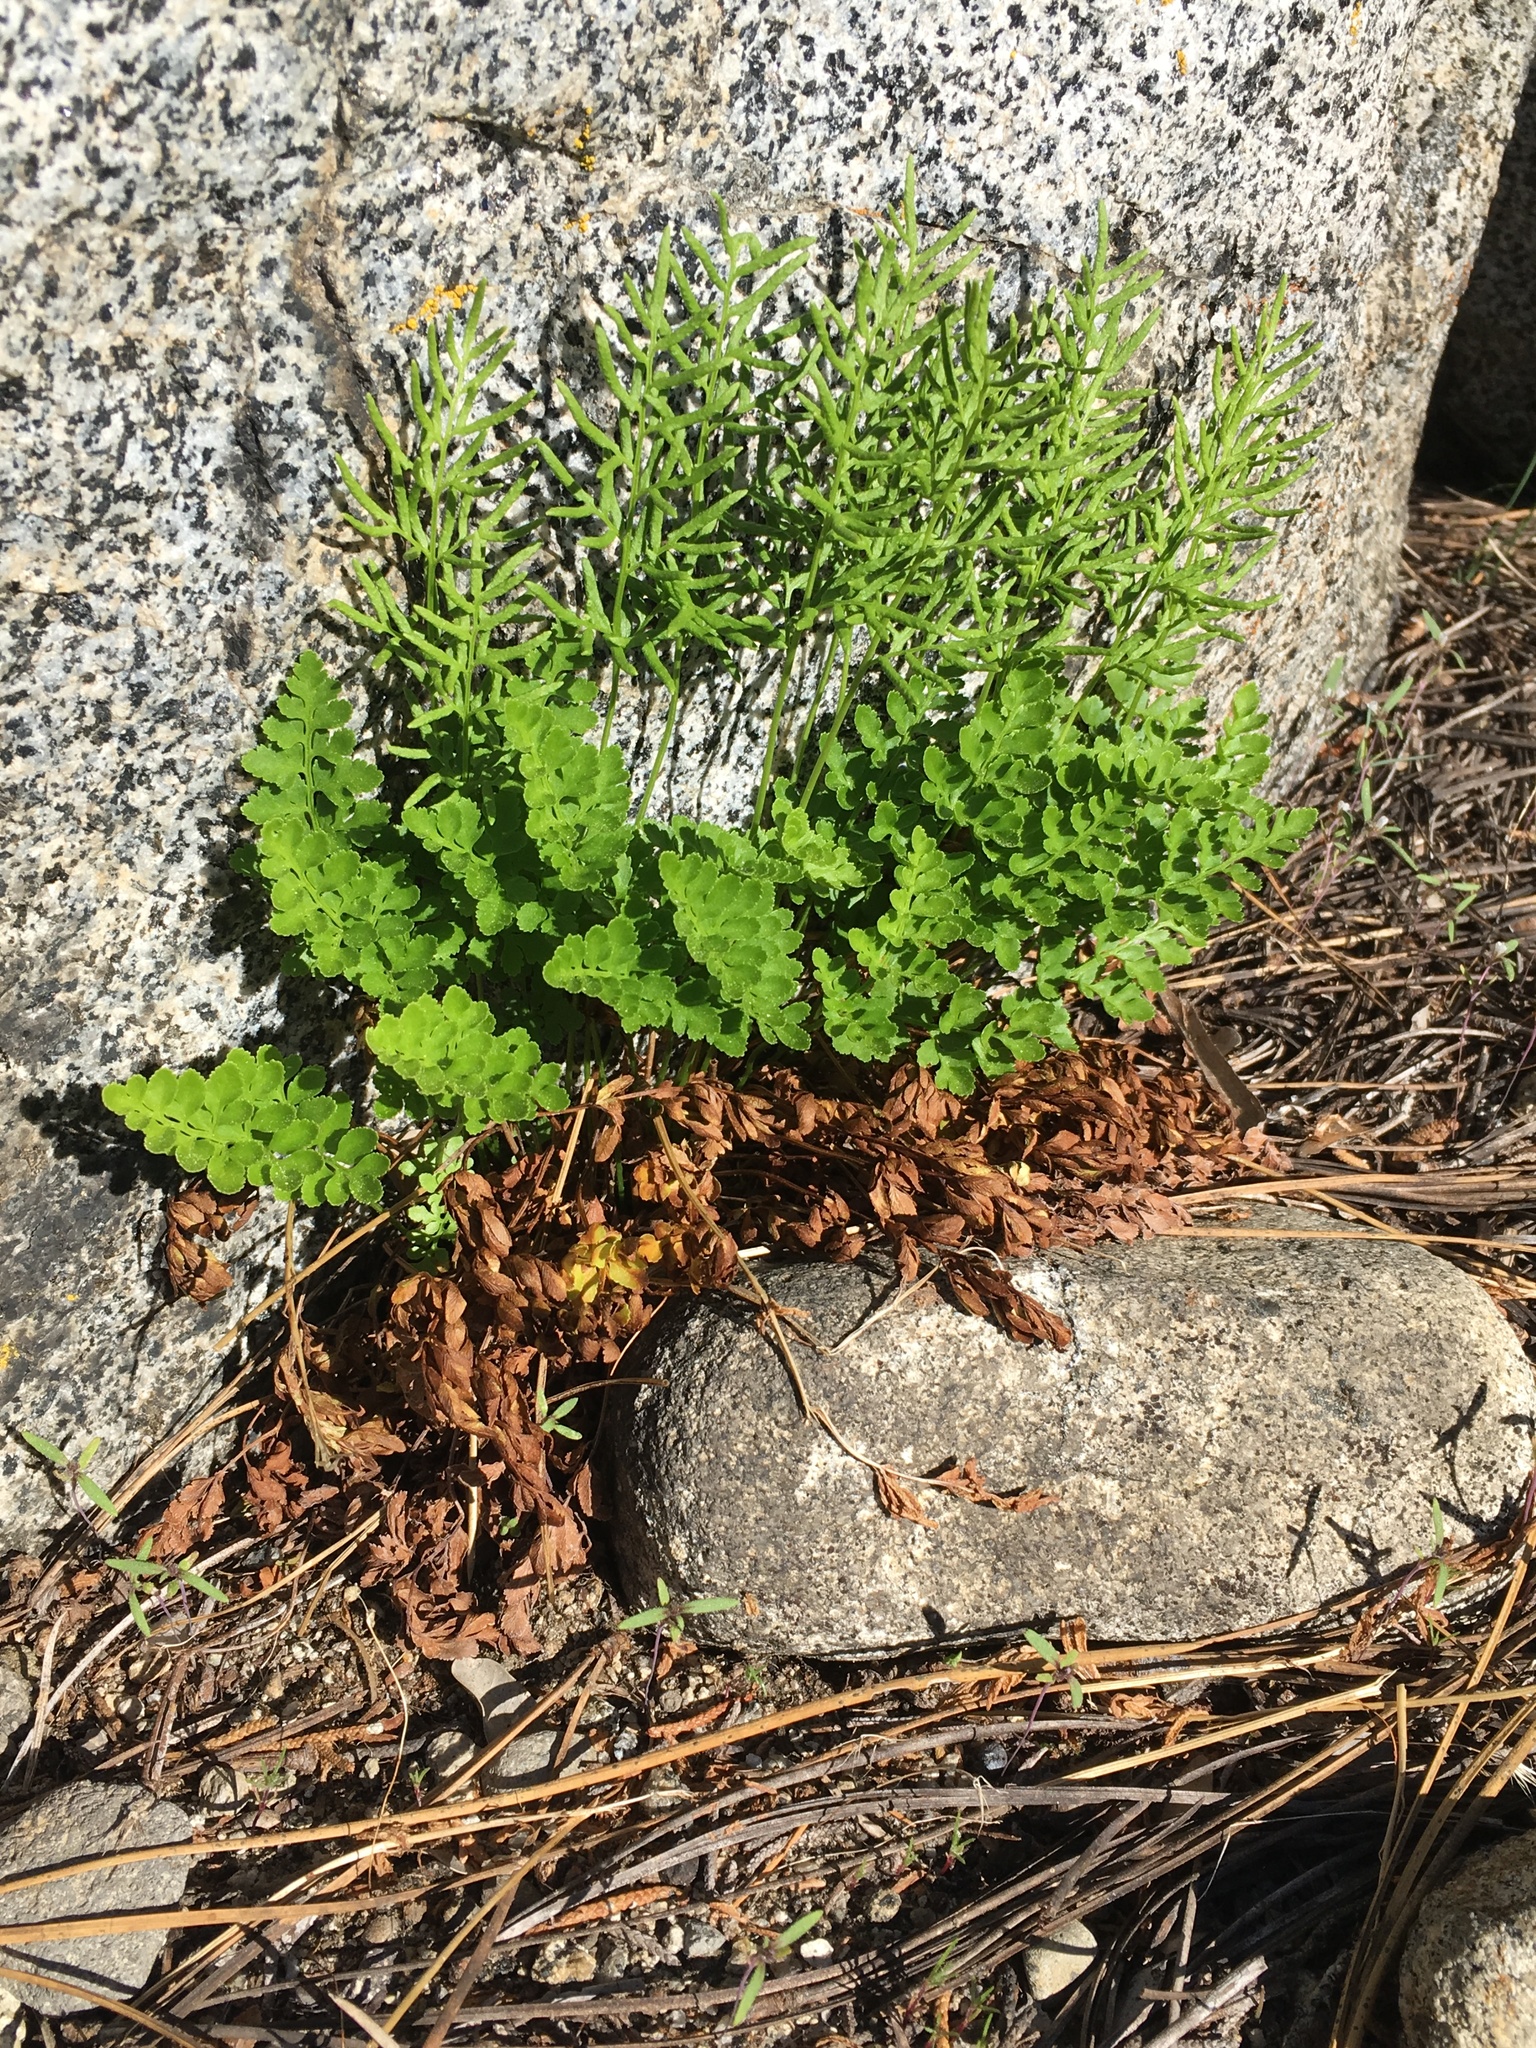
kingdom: Plantae
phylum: Tracheophyta
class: Polypodiopsida
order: Polypodiales
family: Pteridaceae
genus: Cryptogramma
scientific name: Cryptogramma acrostichoides
